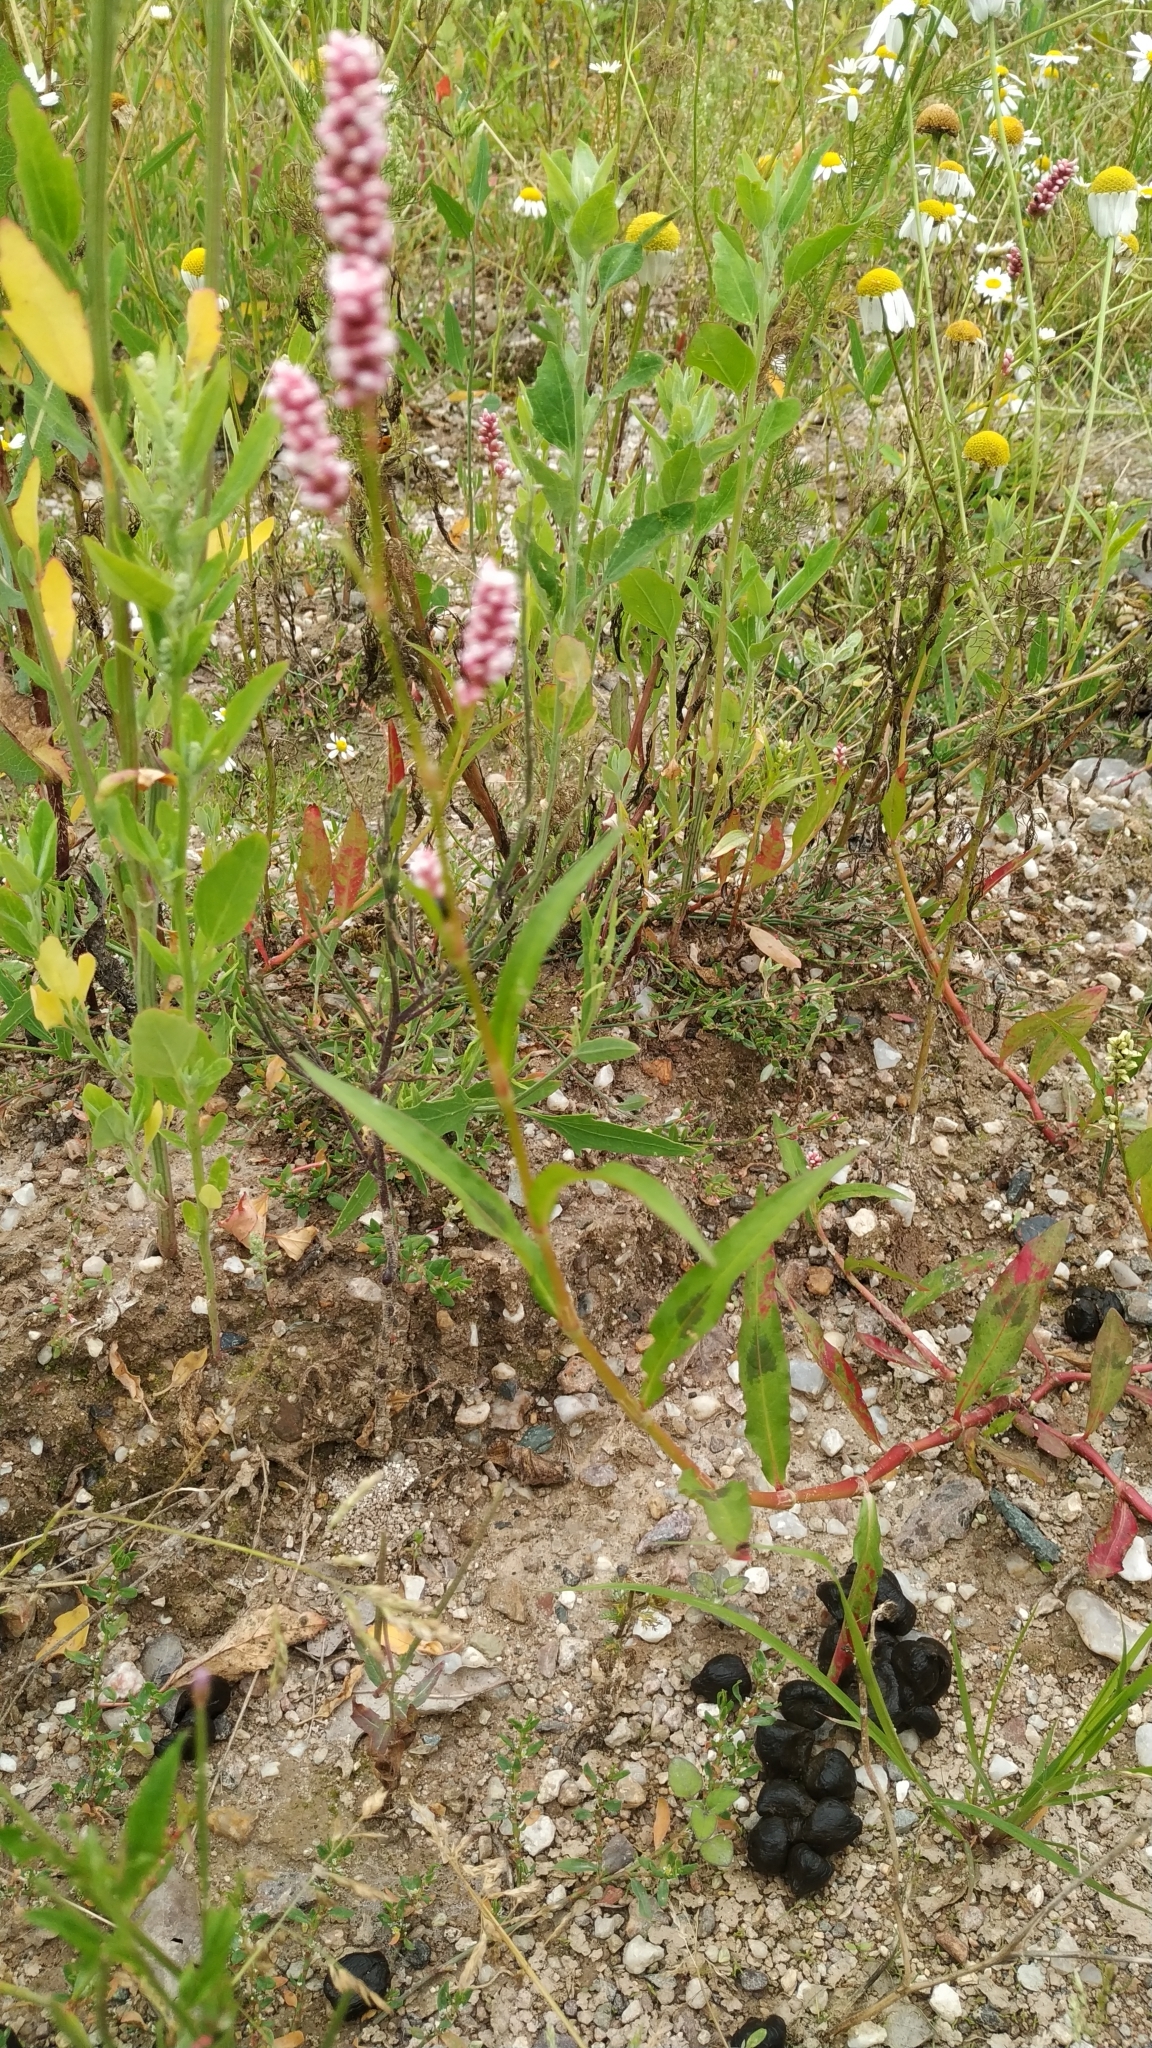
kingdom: Plantae
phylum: Tracheophyta
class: Magnoliopsida
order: Caryophyllales
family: Polygonaceae
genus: Persicaria
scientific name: Persicaria maculosa
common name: Redshank
